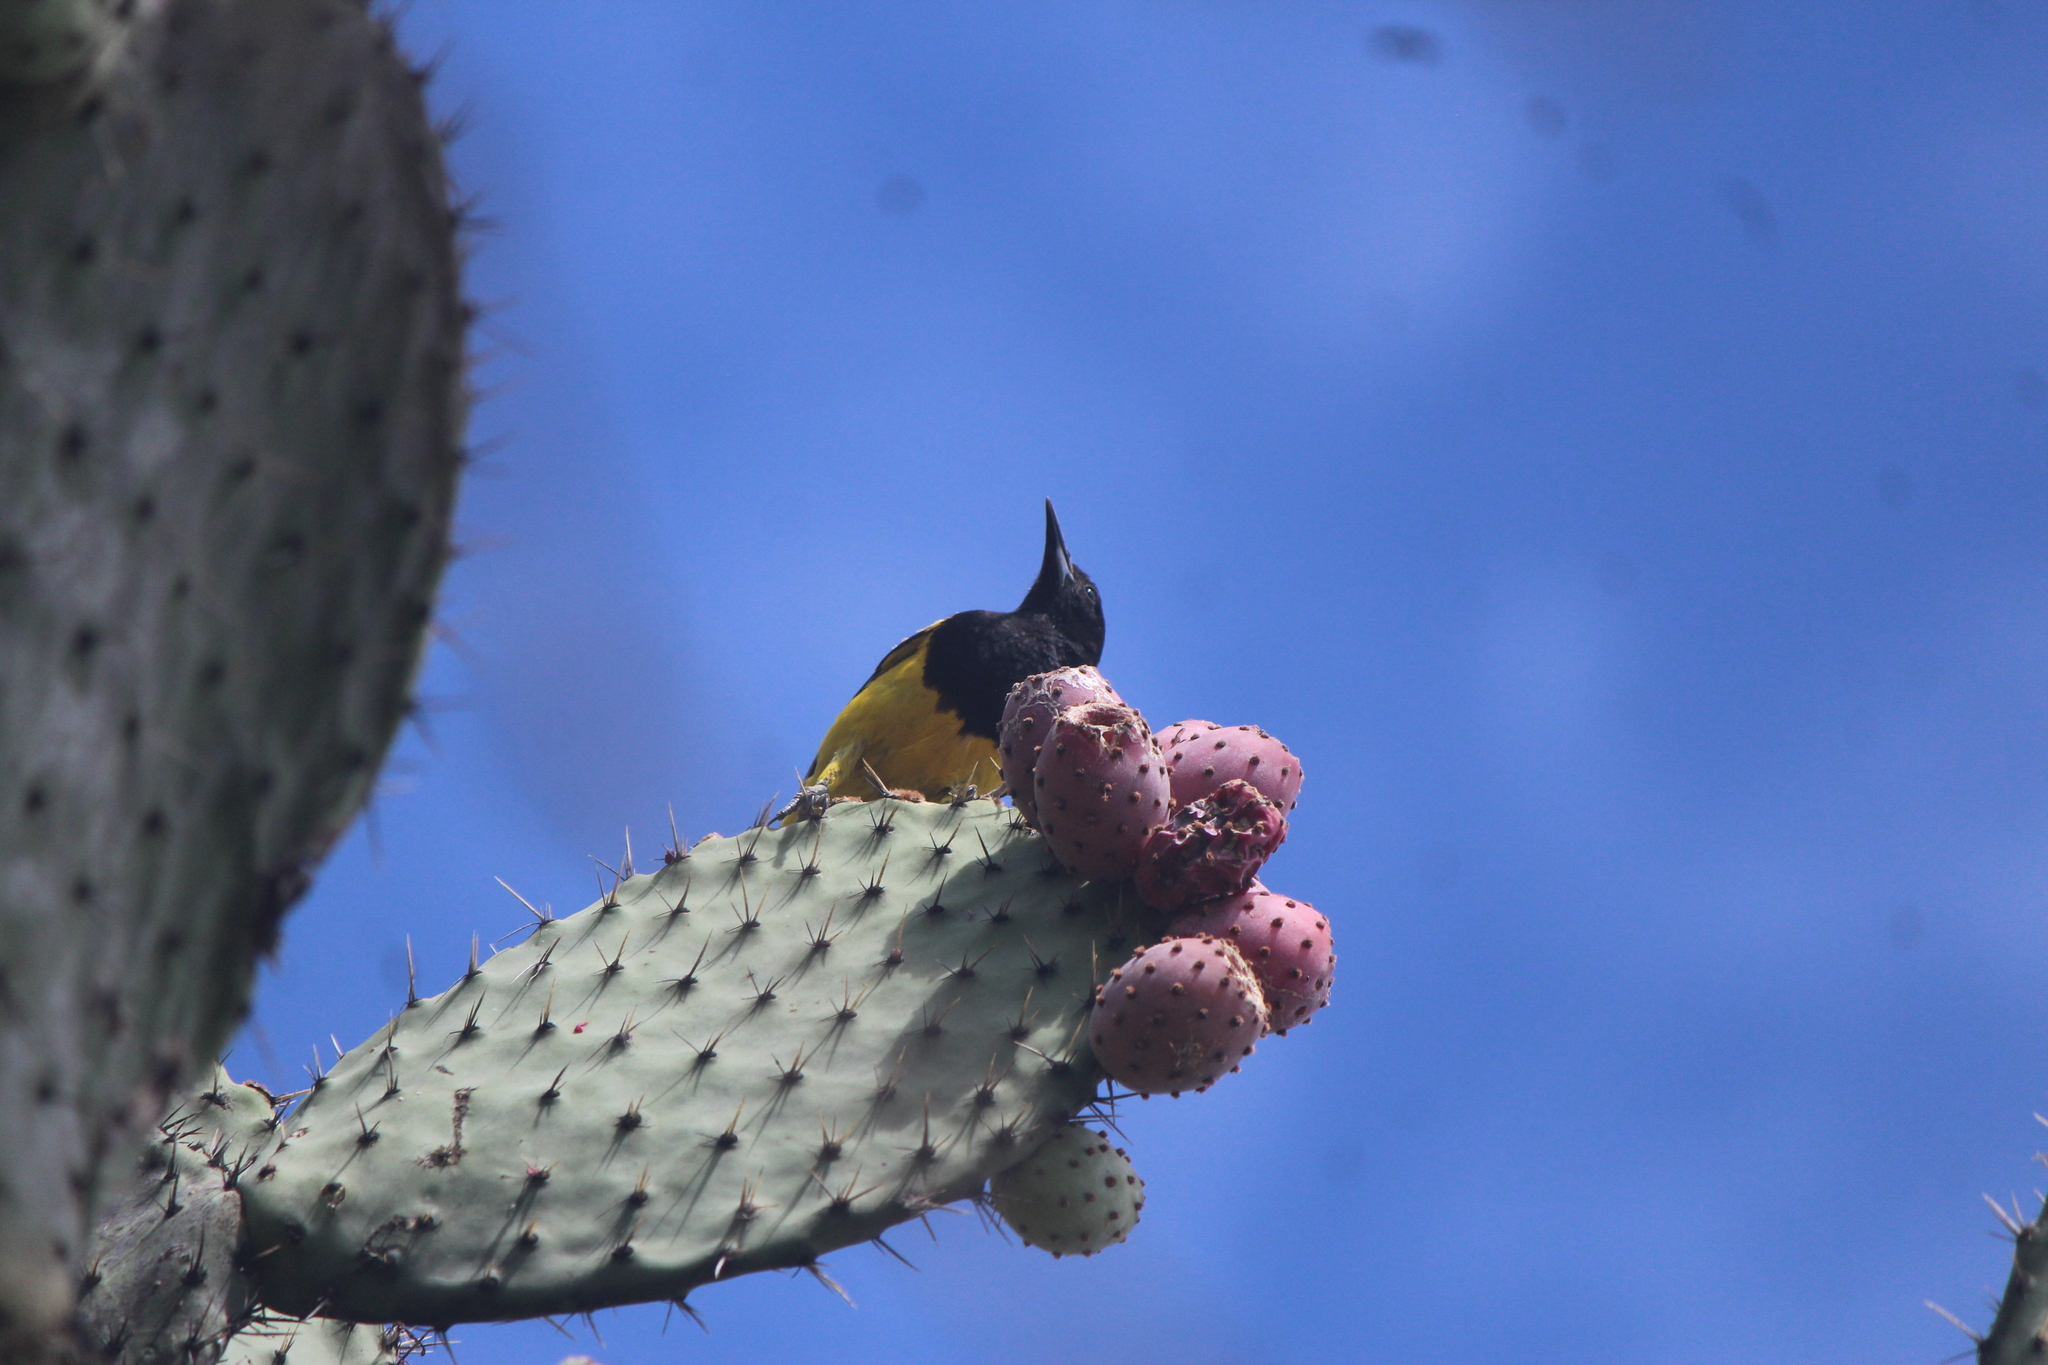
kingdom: Animalia
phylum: Chordata
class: Aves
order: Passeriformes
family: Icteridae
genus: Icterus
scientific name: Icterus parisorum
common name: Scott's oriole
